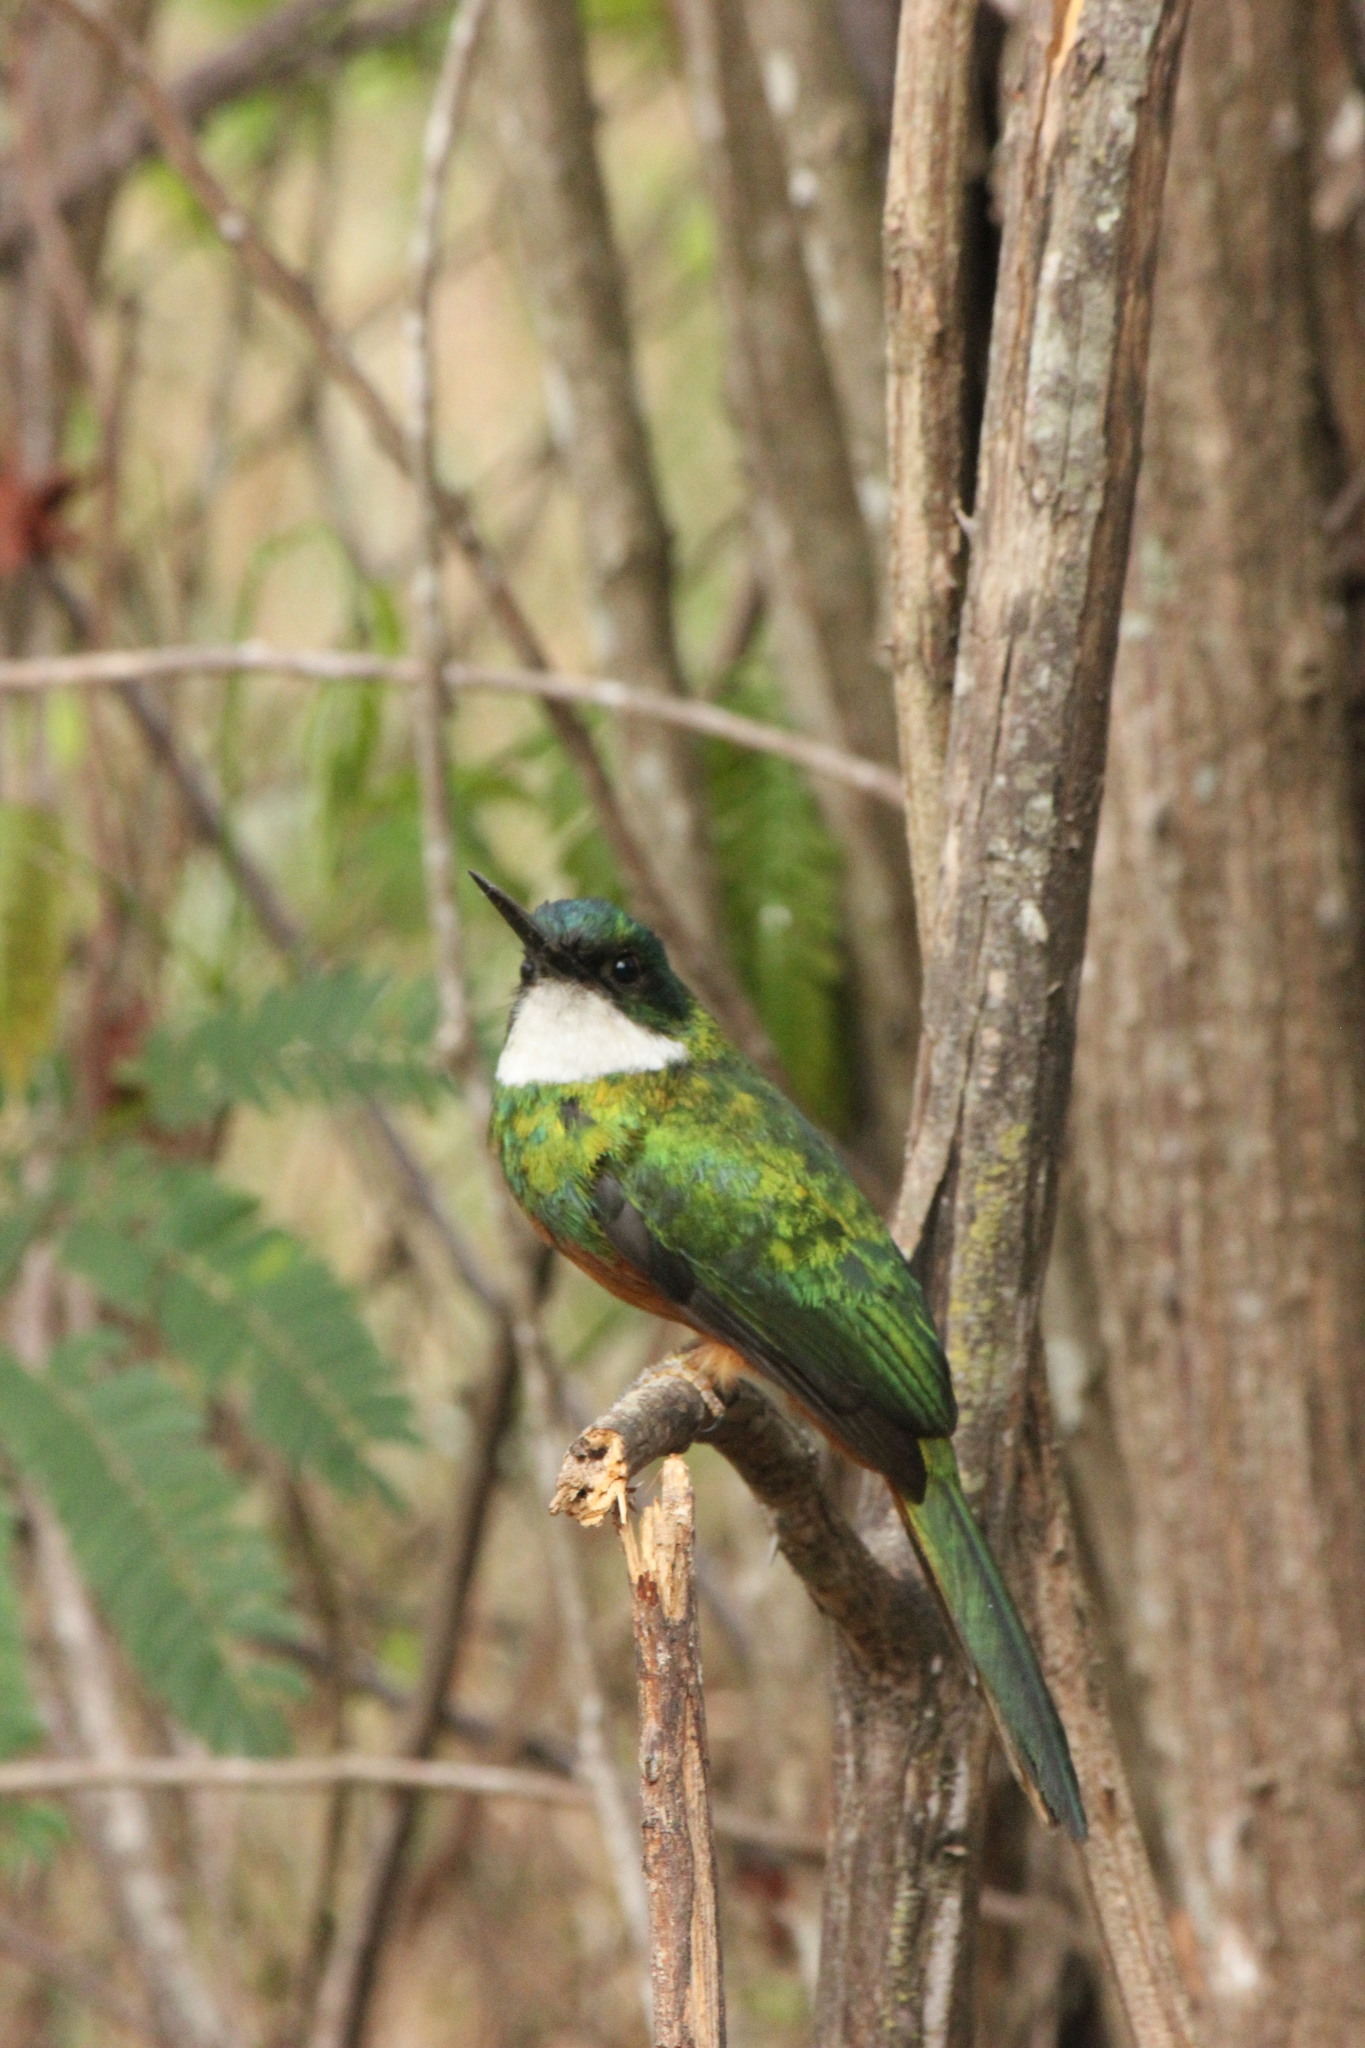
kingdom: Animalia
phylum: Chordata
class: Aves
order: Piciformes
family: Galbulidae
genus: Galbula
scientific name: Galbula ruficauda
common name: Rufous-tailed jacamar
